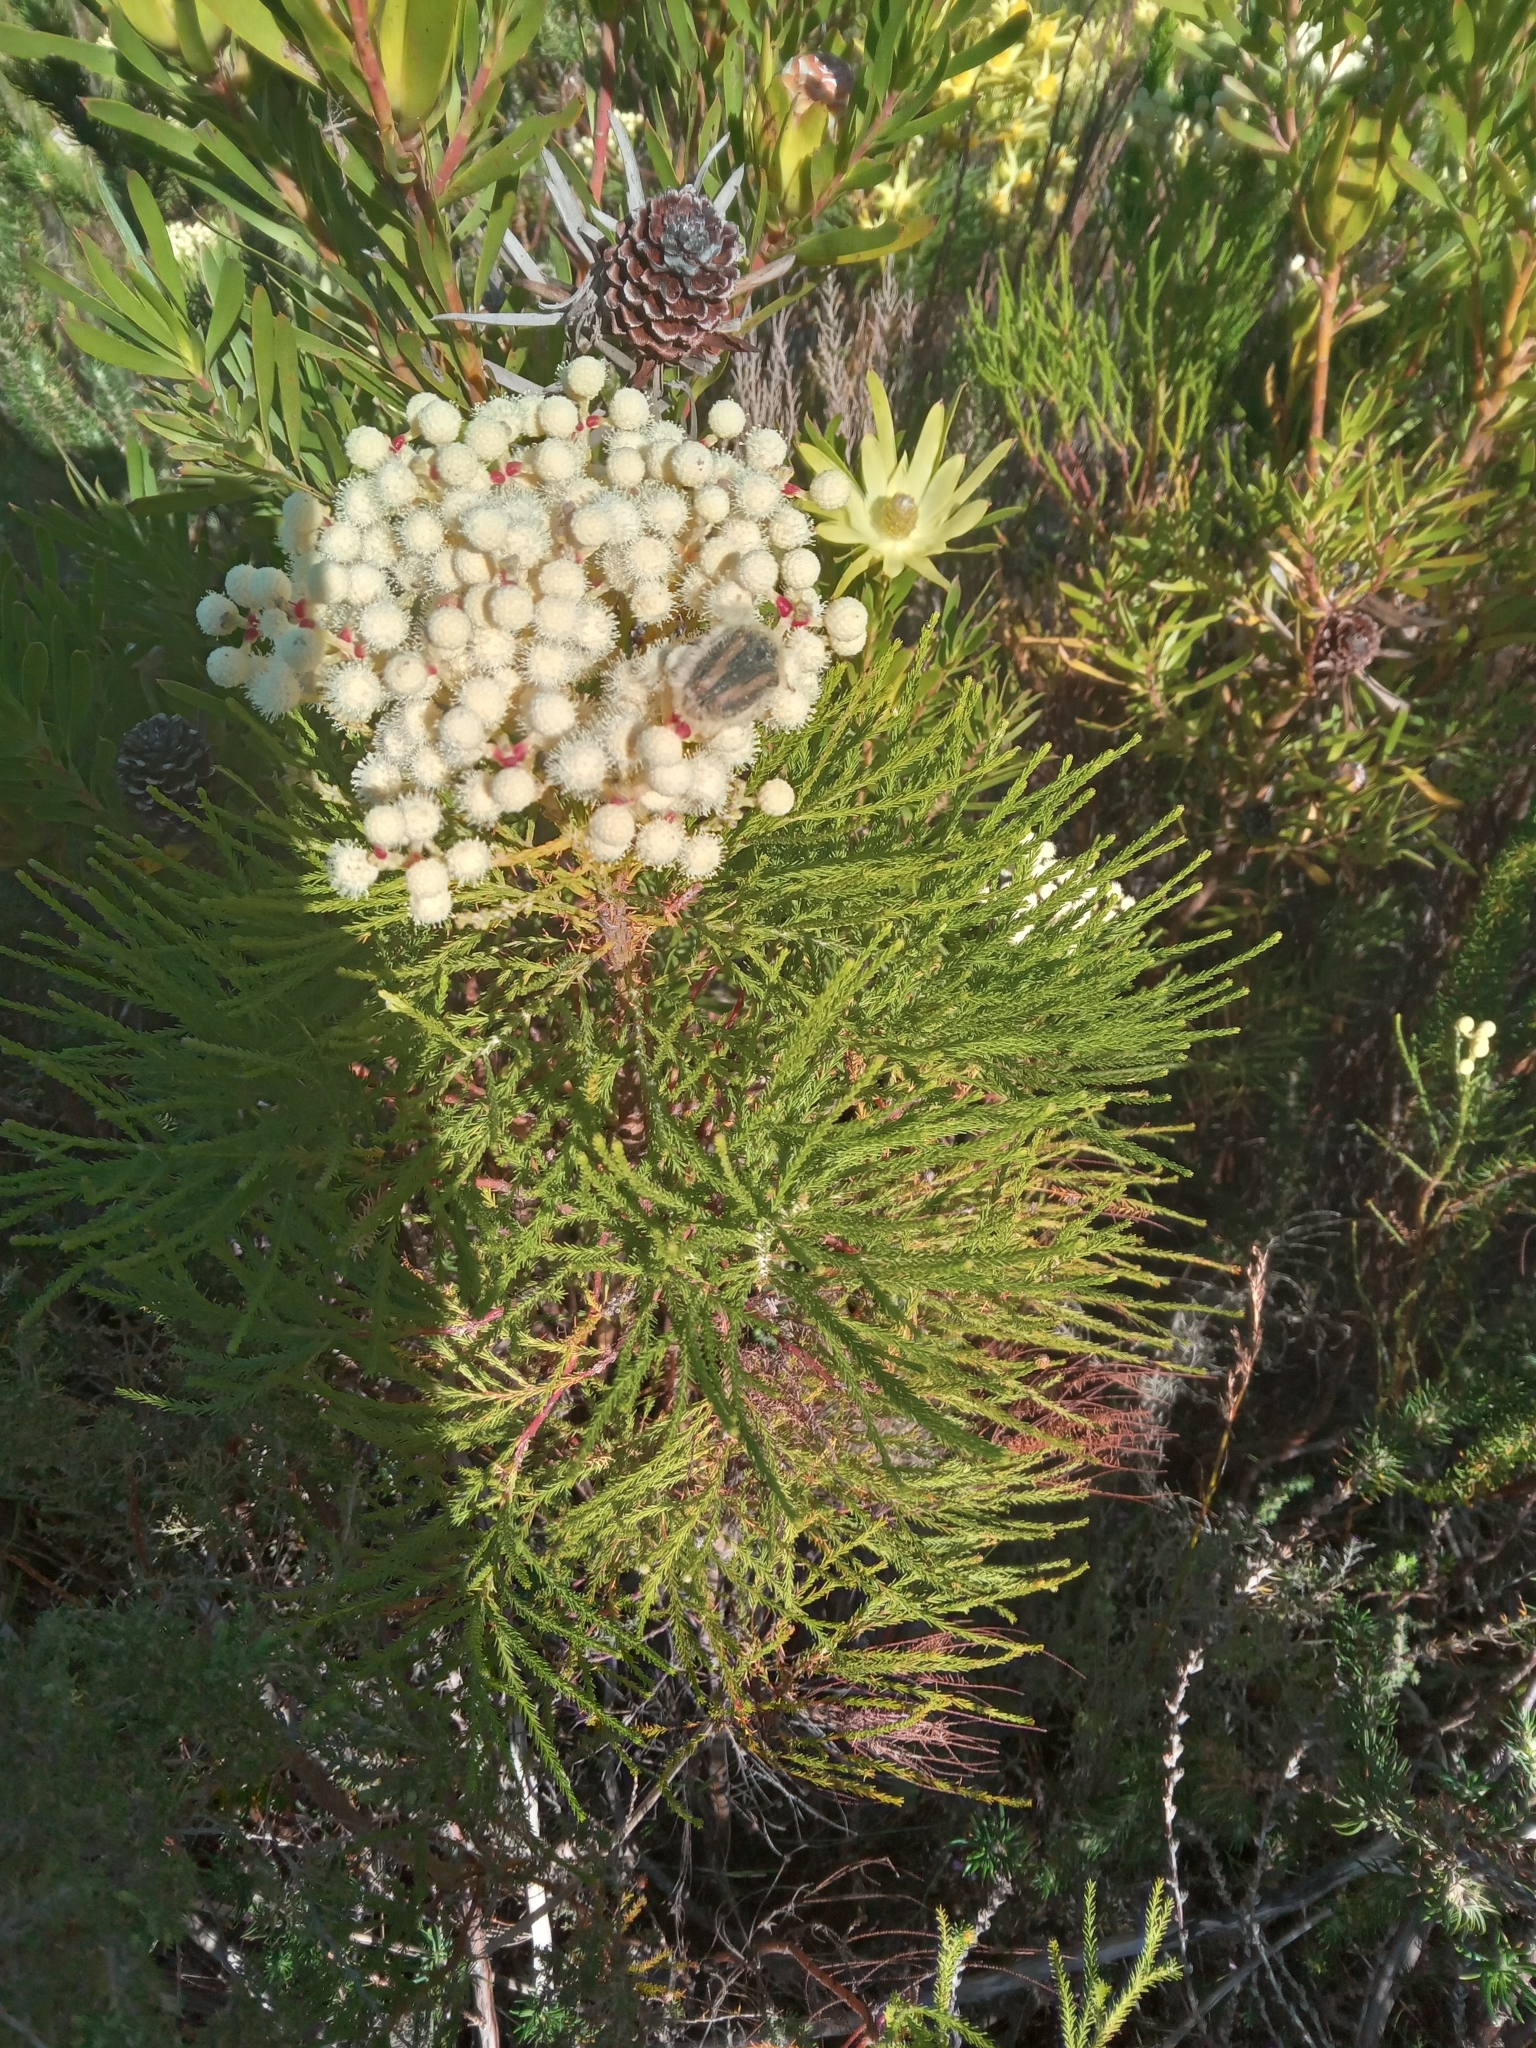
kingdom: Animalia
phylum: Arthropoda
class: Insecta
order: Coleoptera
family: Scarabaeidae
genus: Trichostetha
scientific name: Trichostetha potbergensis
